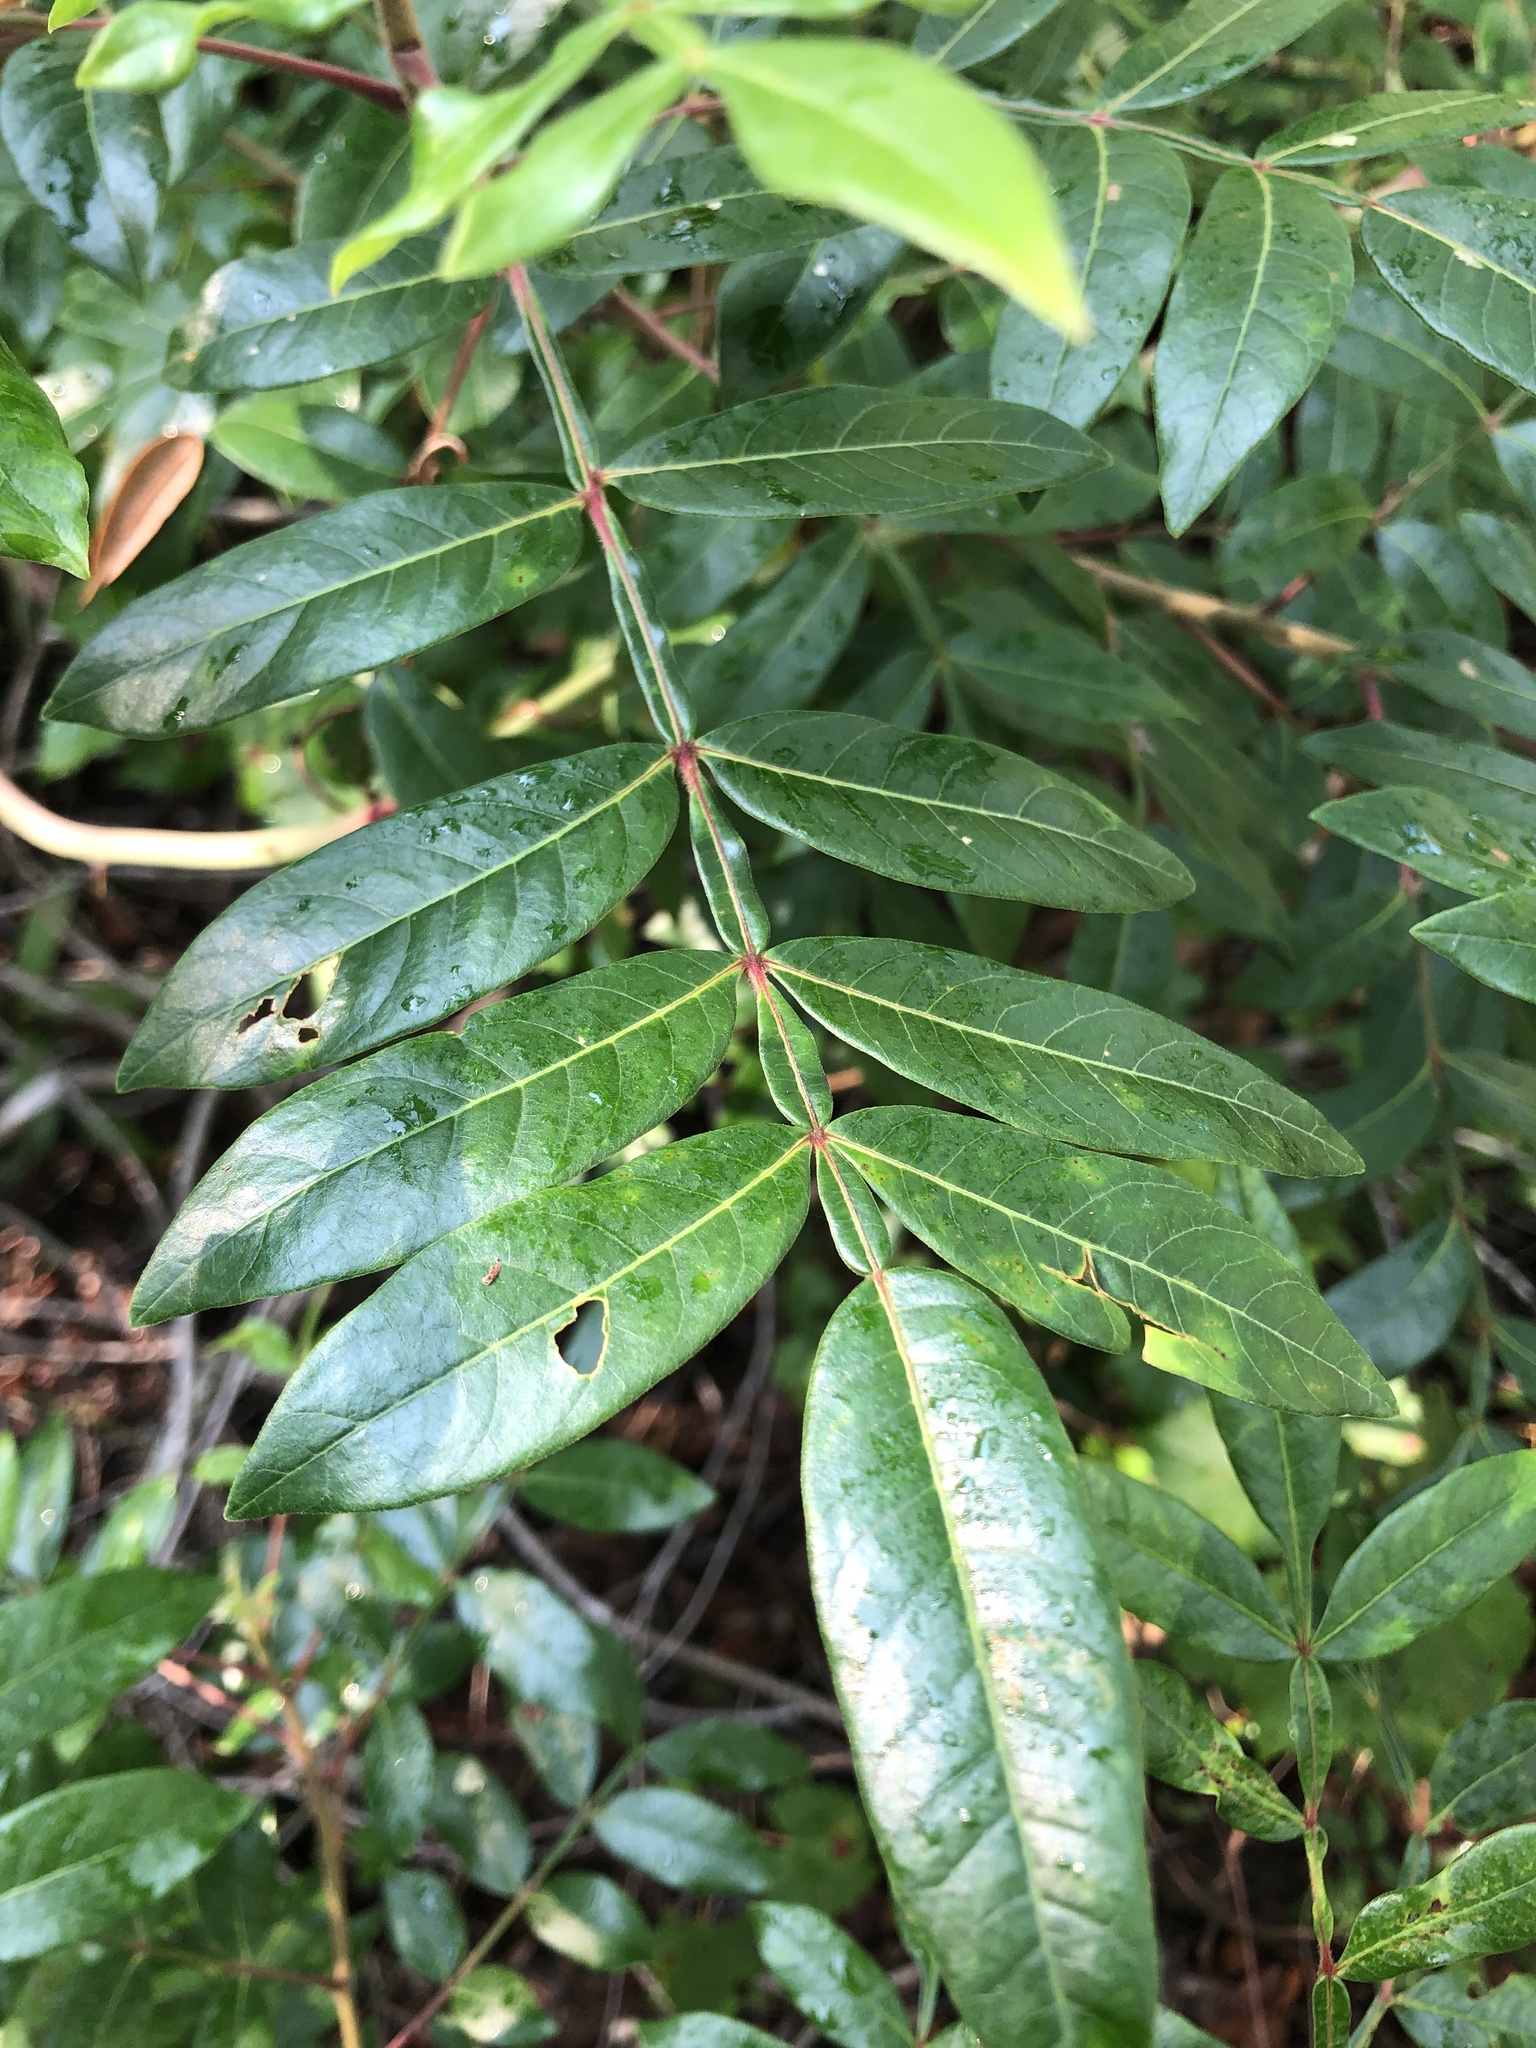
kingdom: Plantae
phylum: Tracheophyta
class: Magnoliopsida
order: Sapindales
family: Anacardiaceae
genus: Rhus
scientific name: Rhus copallina
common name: Shining sumac
